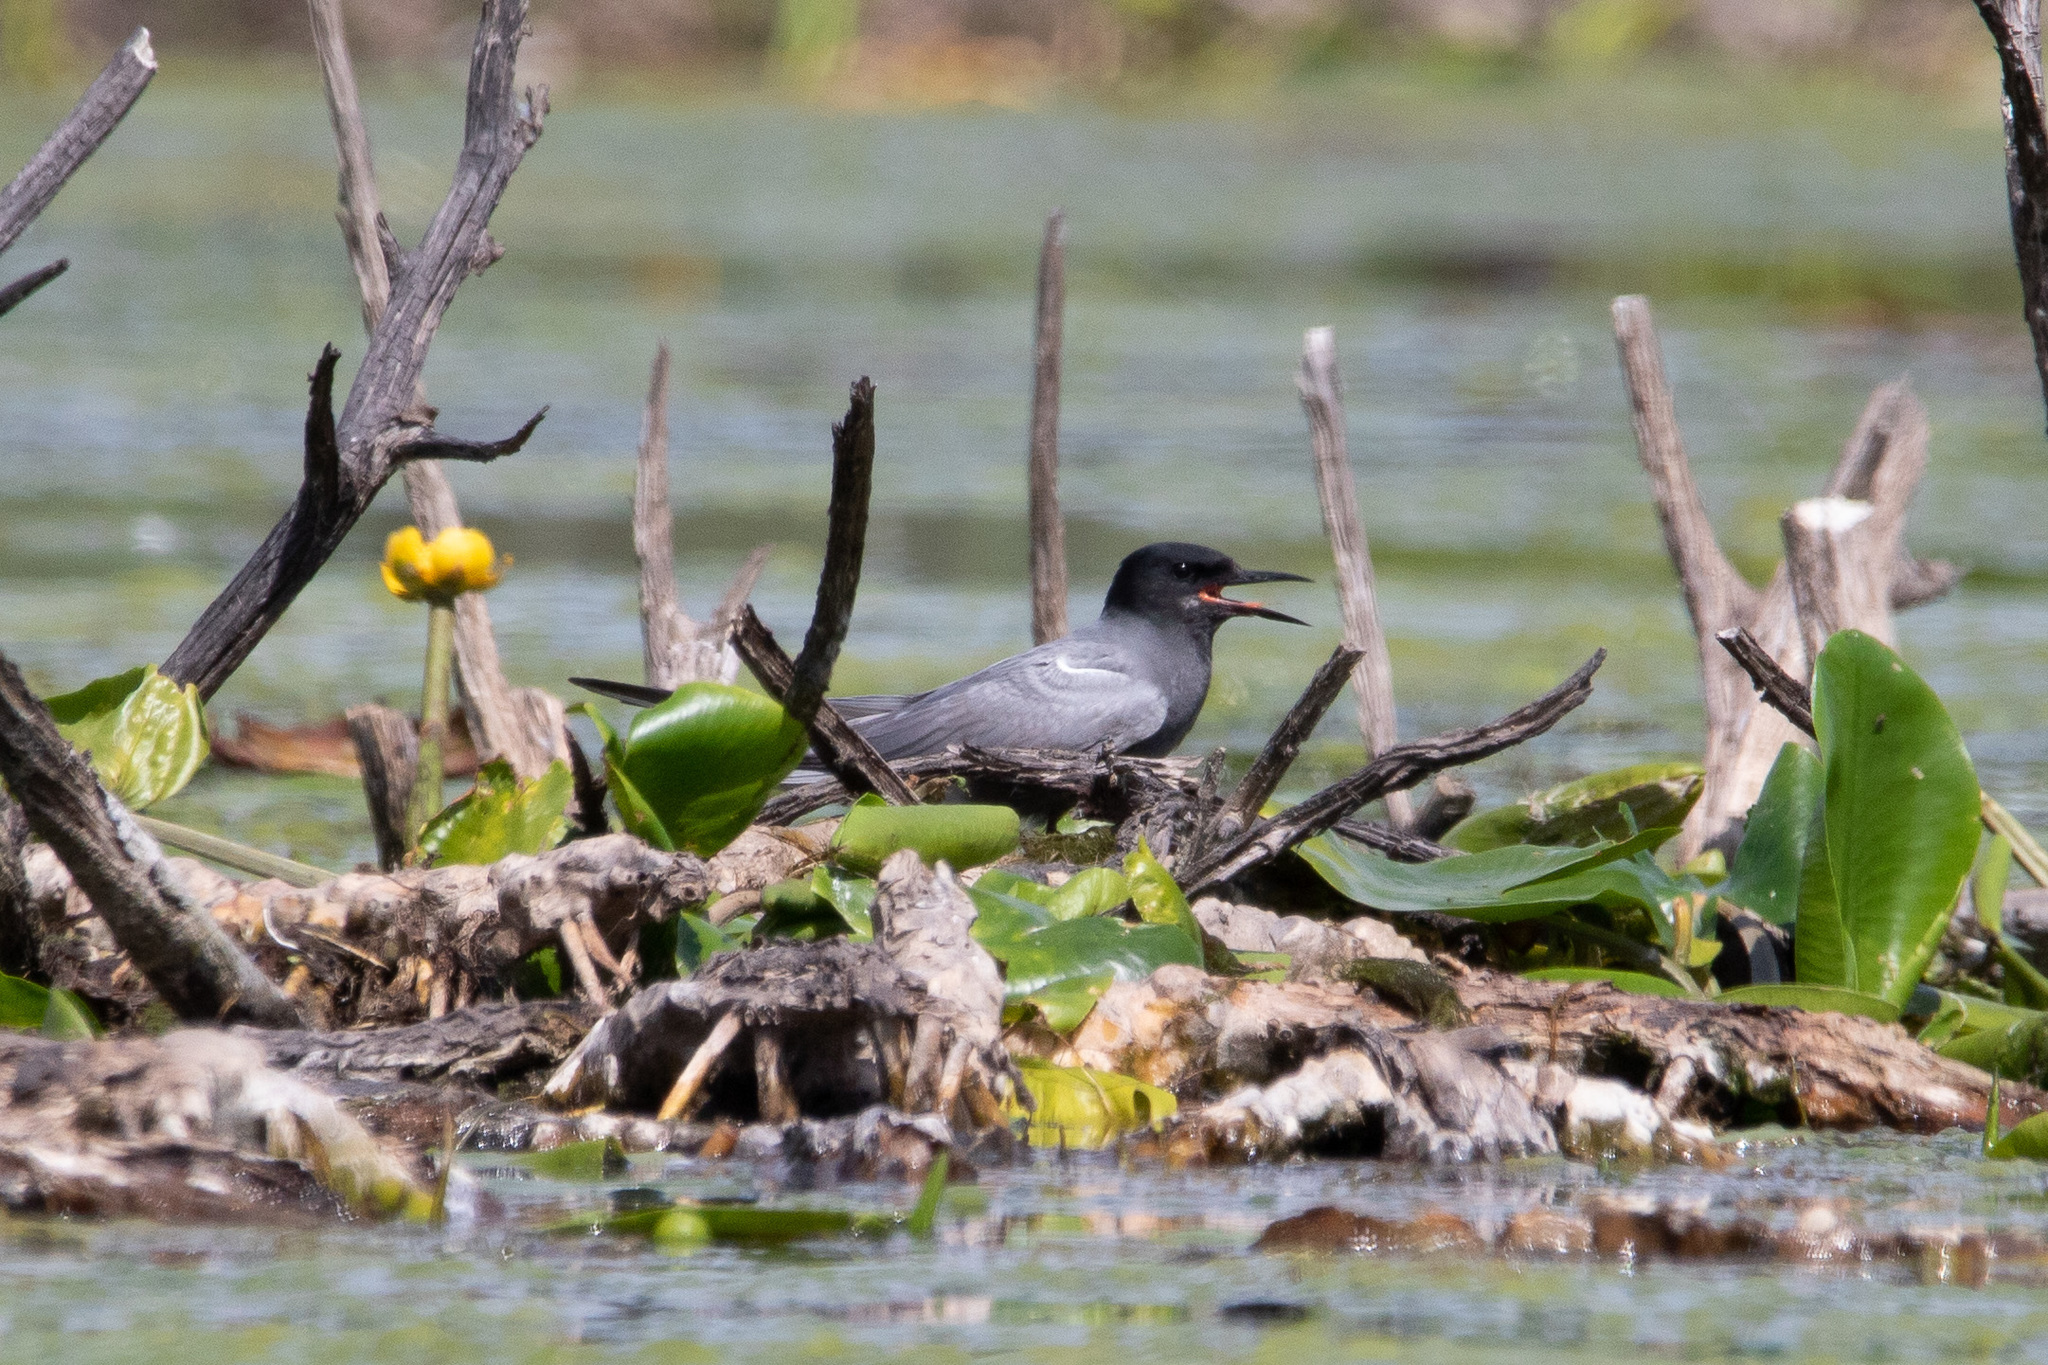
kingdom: Animalia
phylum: Chordata
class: Aves
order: Charadriiformes
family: Laridae
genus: Chlidonias
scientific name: Chlidonias niger
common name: Black tern
